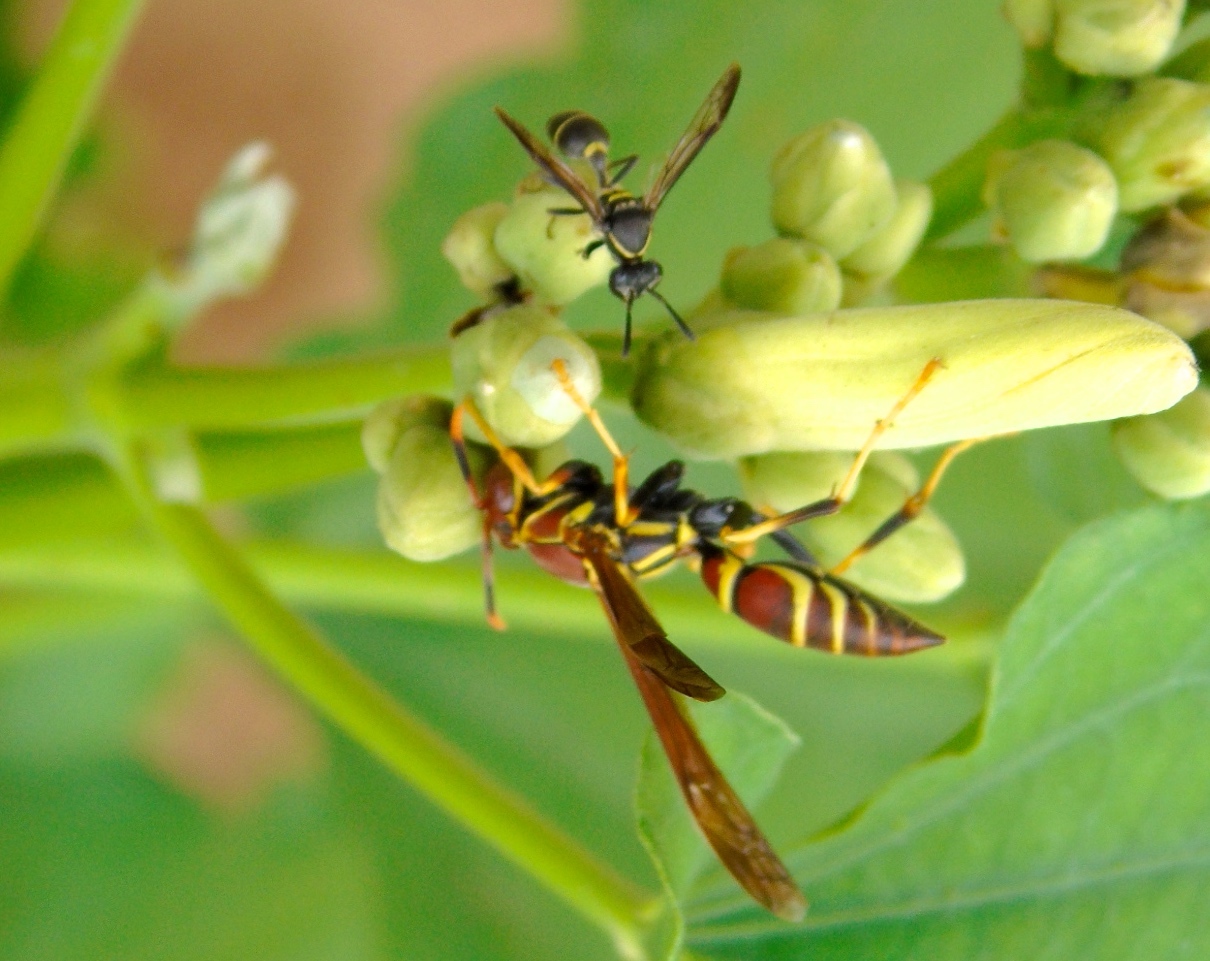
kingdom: Animalia
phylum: Arthropoda
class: Insecta
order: Hymenoptera
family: Vespidae
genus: Myrapetra
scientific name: Myrapetra
